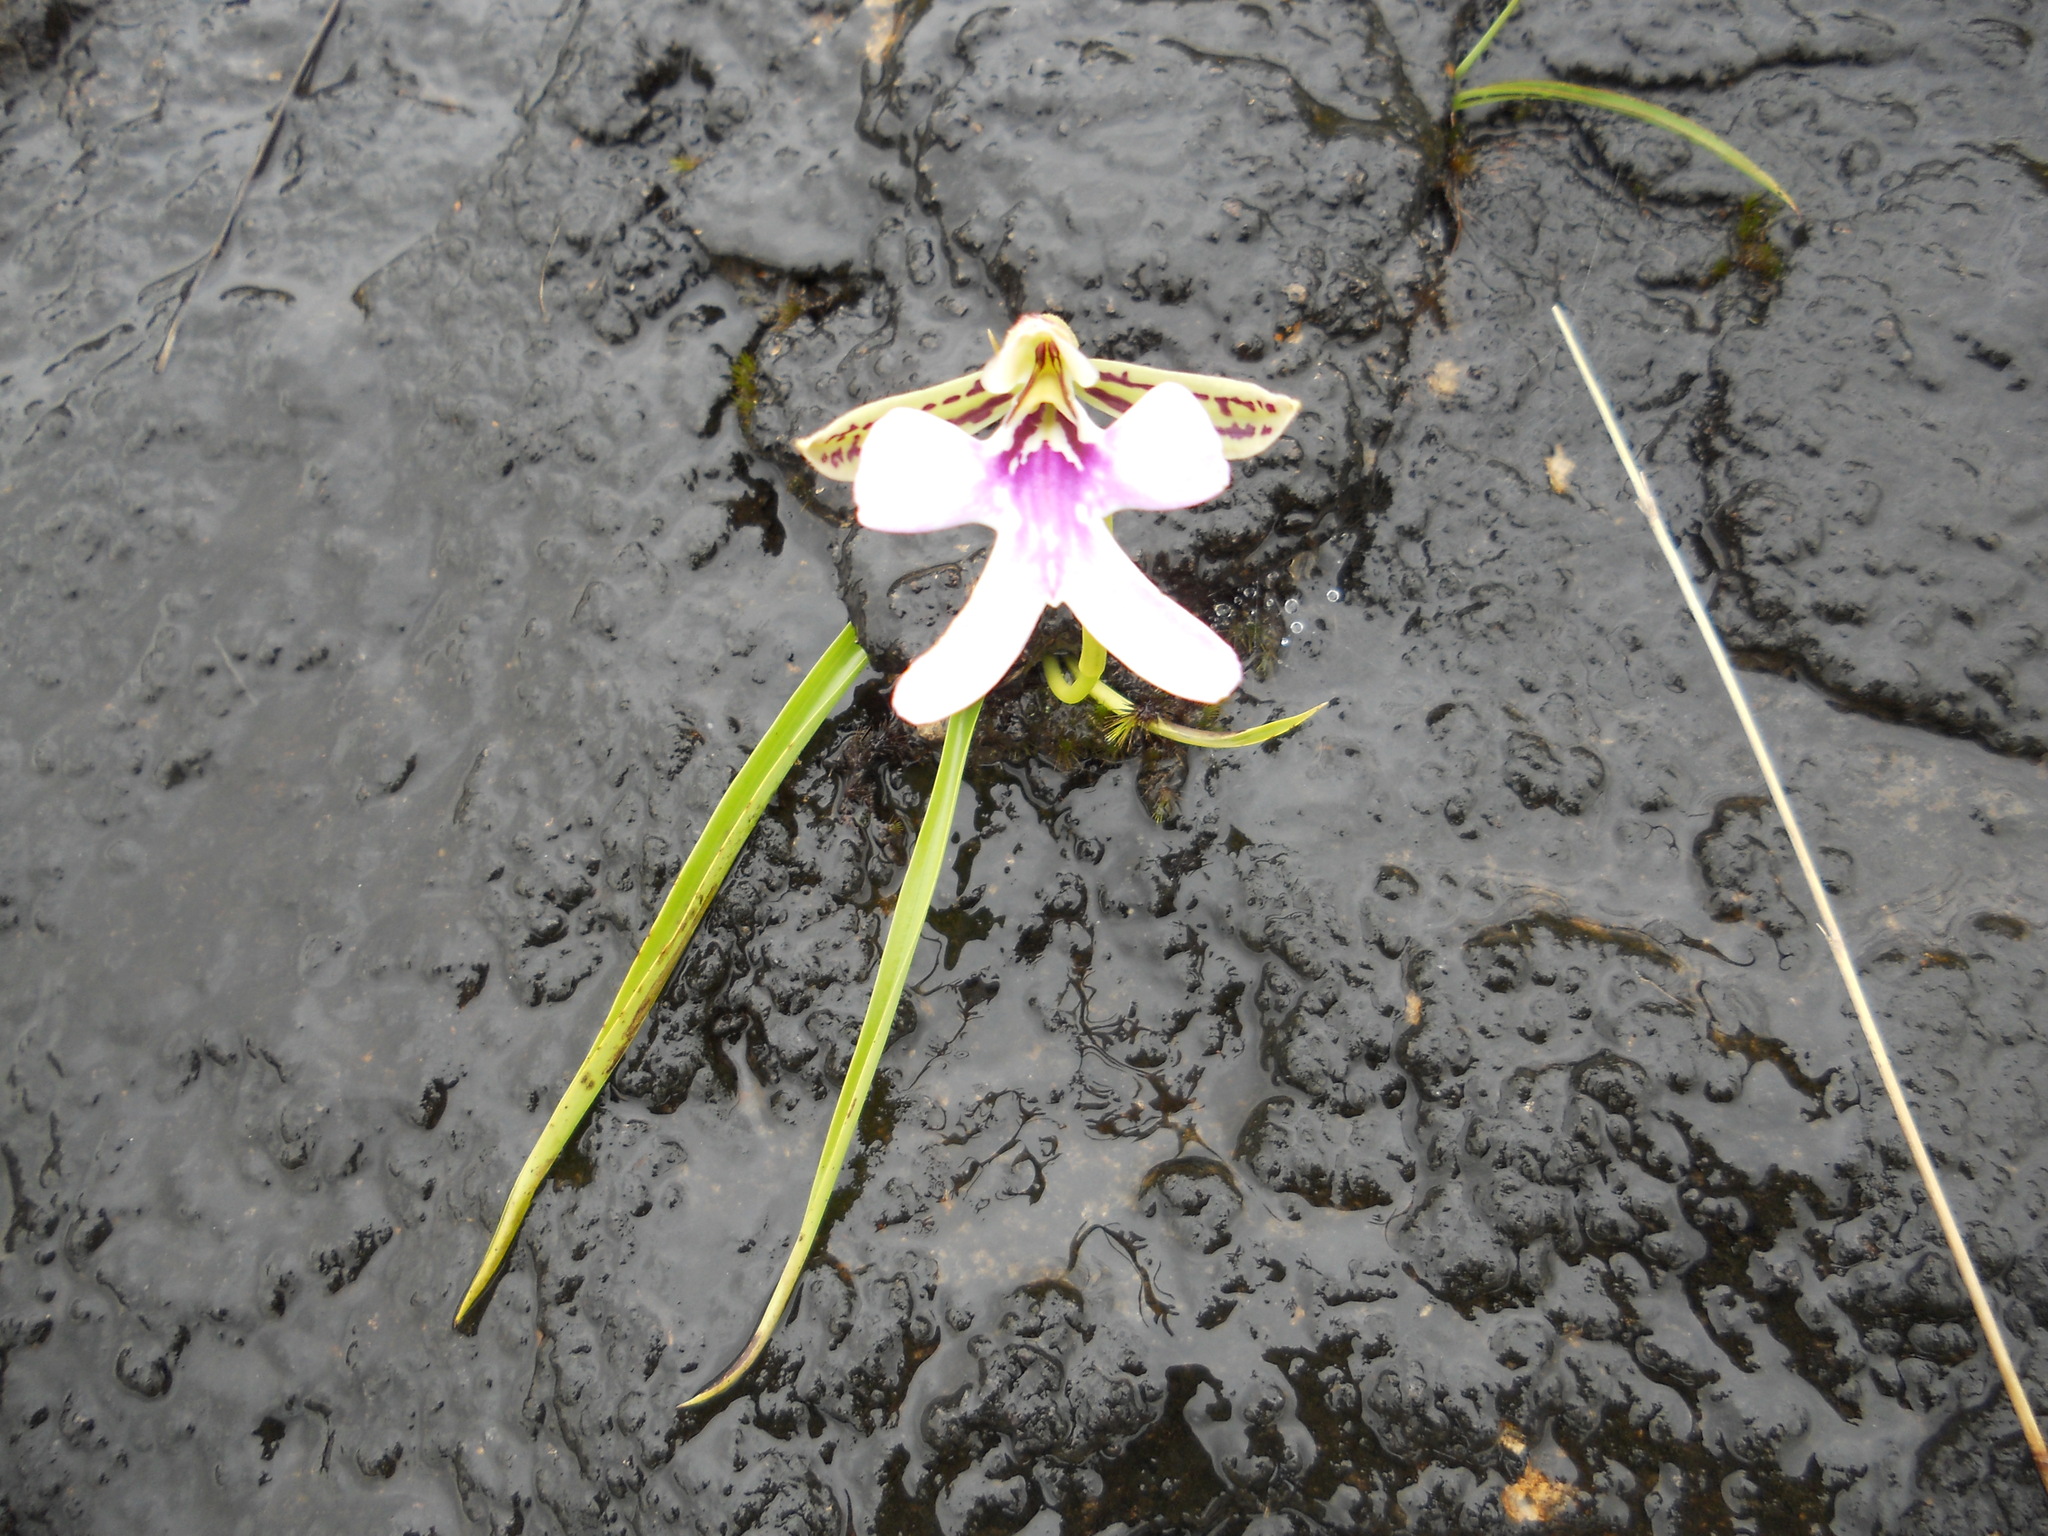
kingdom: Plantae
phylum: Tracheophyta
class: Liliopsida
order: Asparagales
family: Orchidaceae
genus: Cynorkis
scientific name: Cynorkis uniflora
